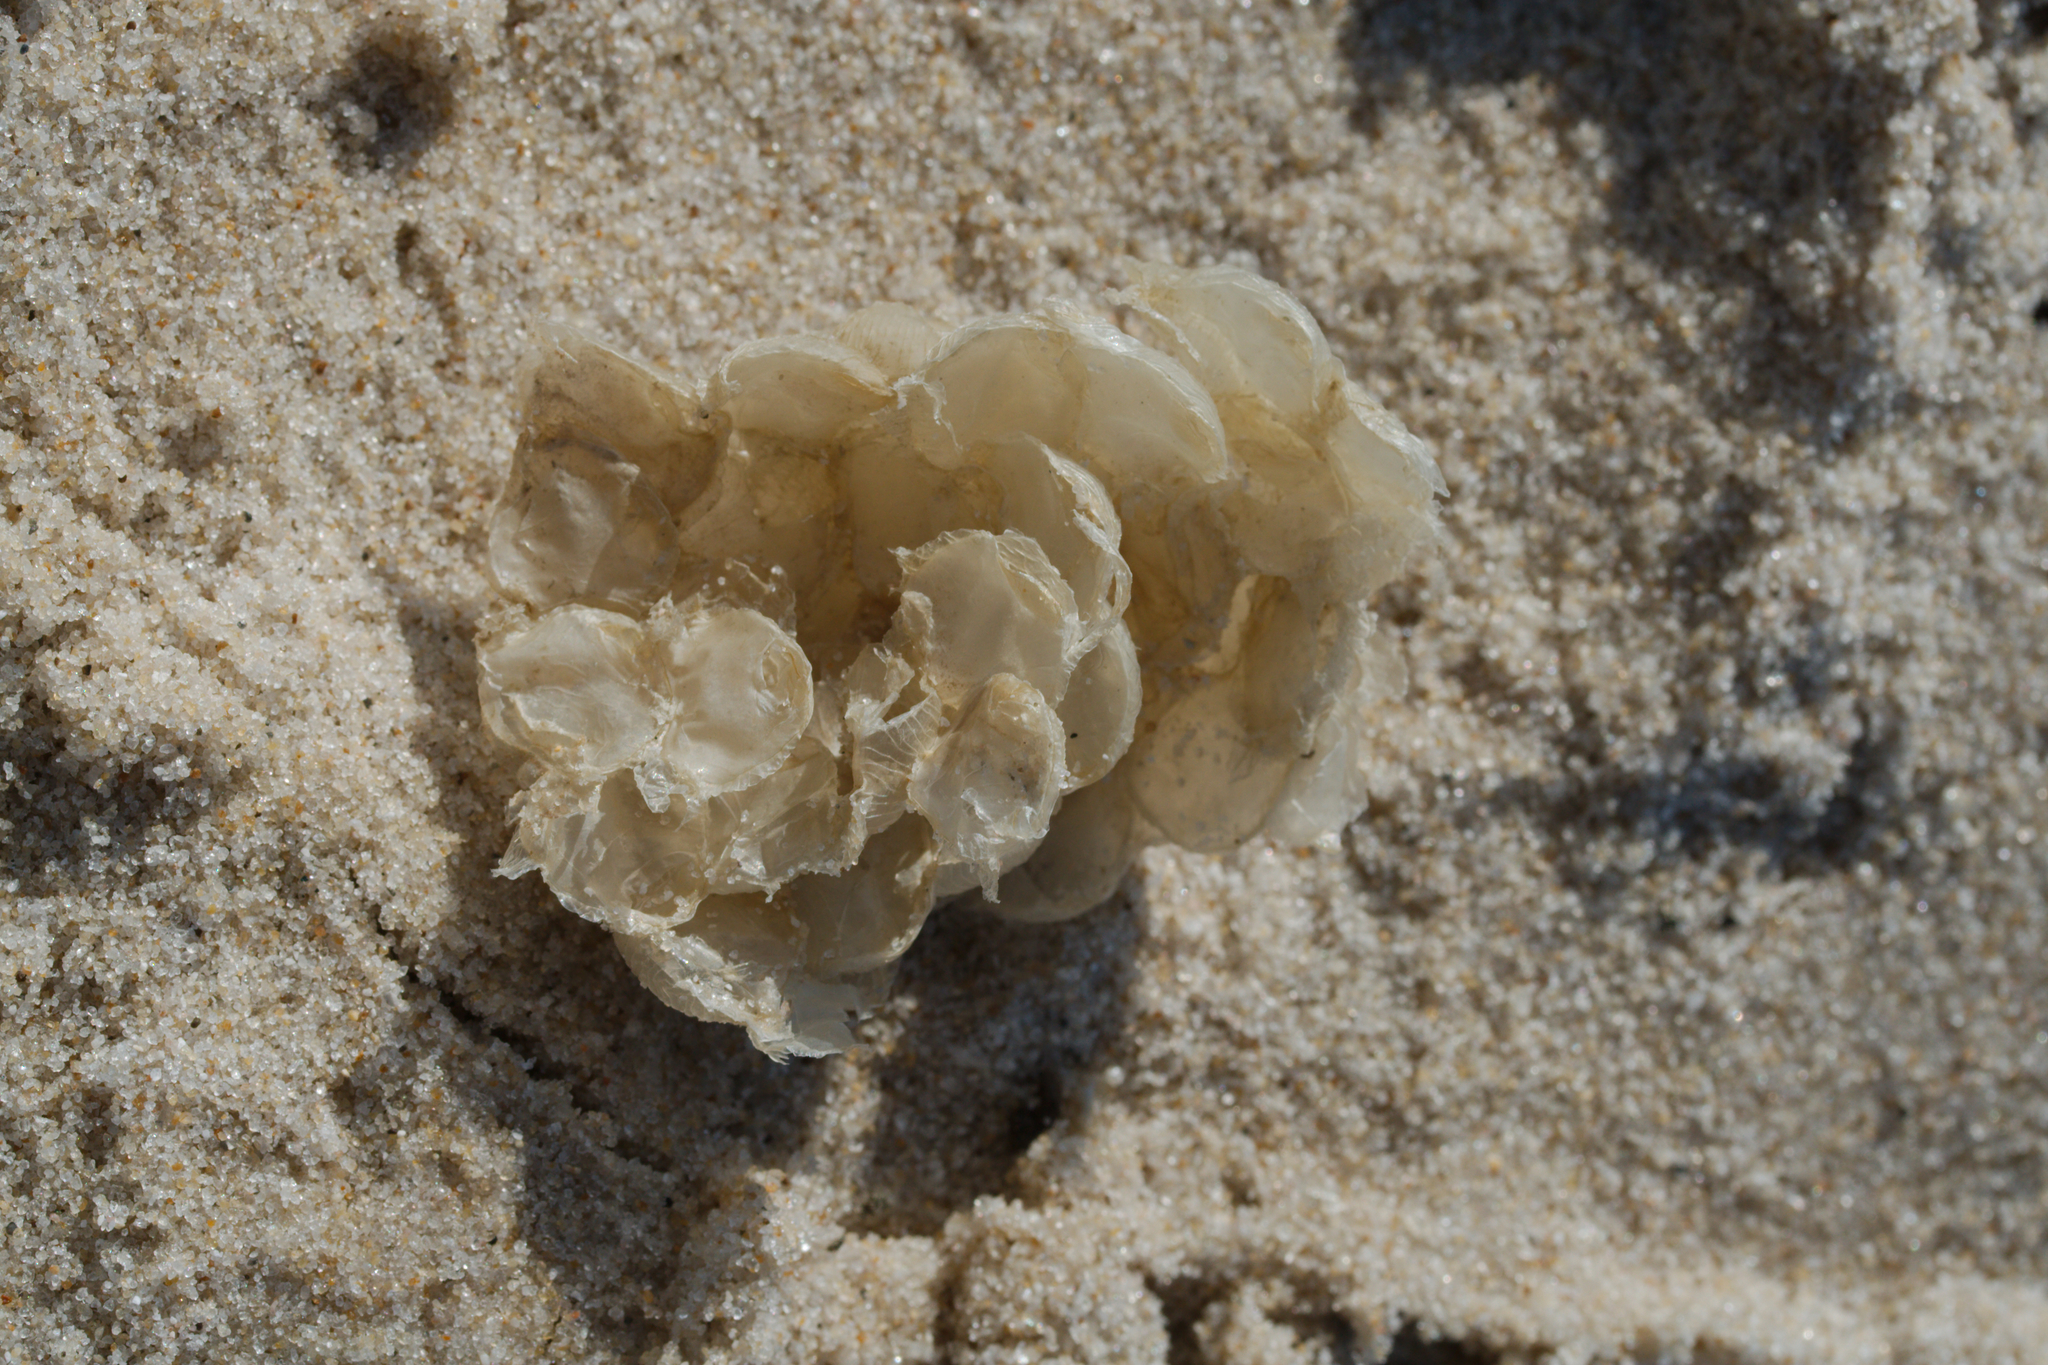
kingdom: Animalia
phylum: Mollusca
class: Gastropoda
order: Neogastropoda
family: Buccinidae
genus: Buccinum
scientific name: Buccinum undatum
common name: Common whelk
